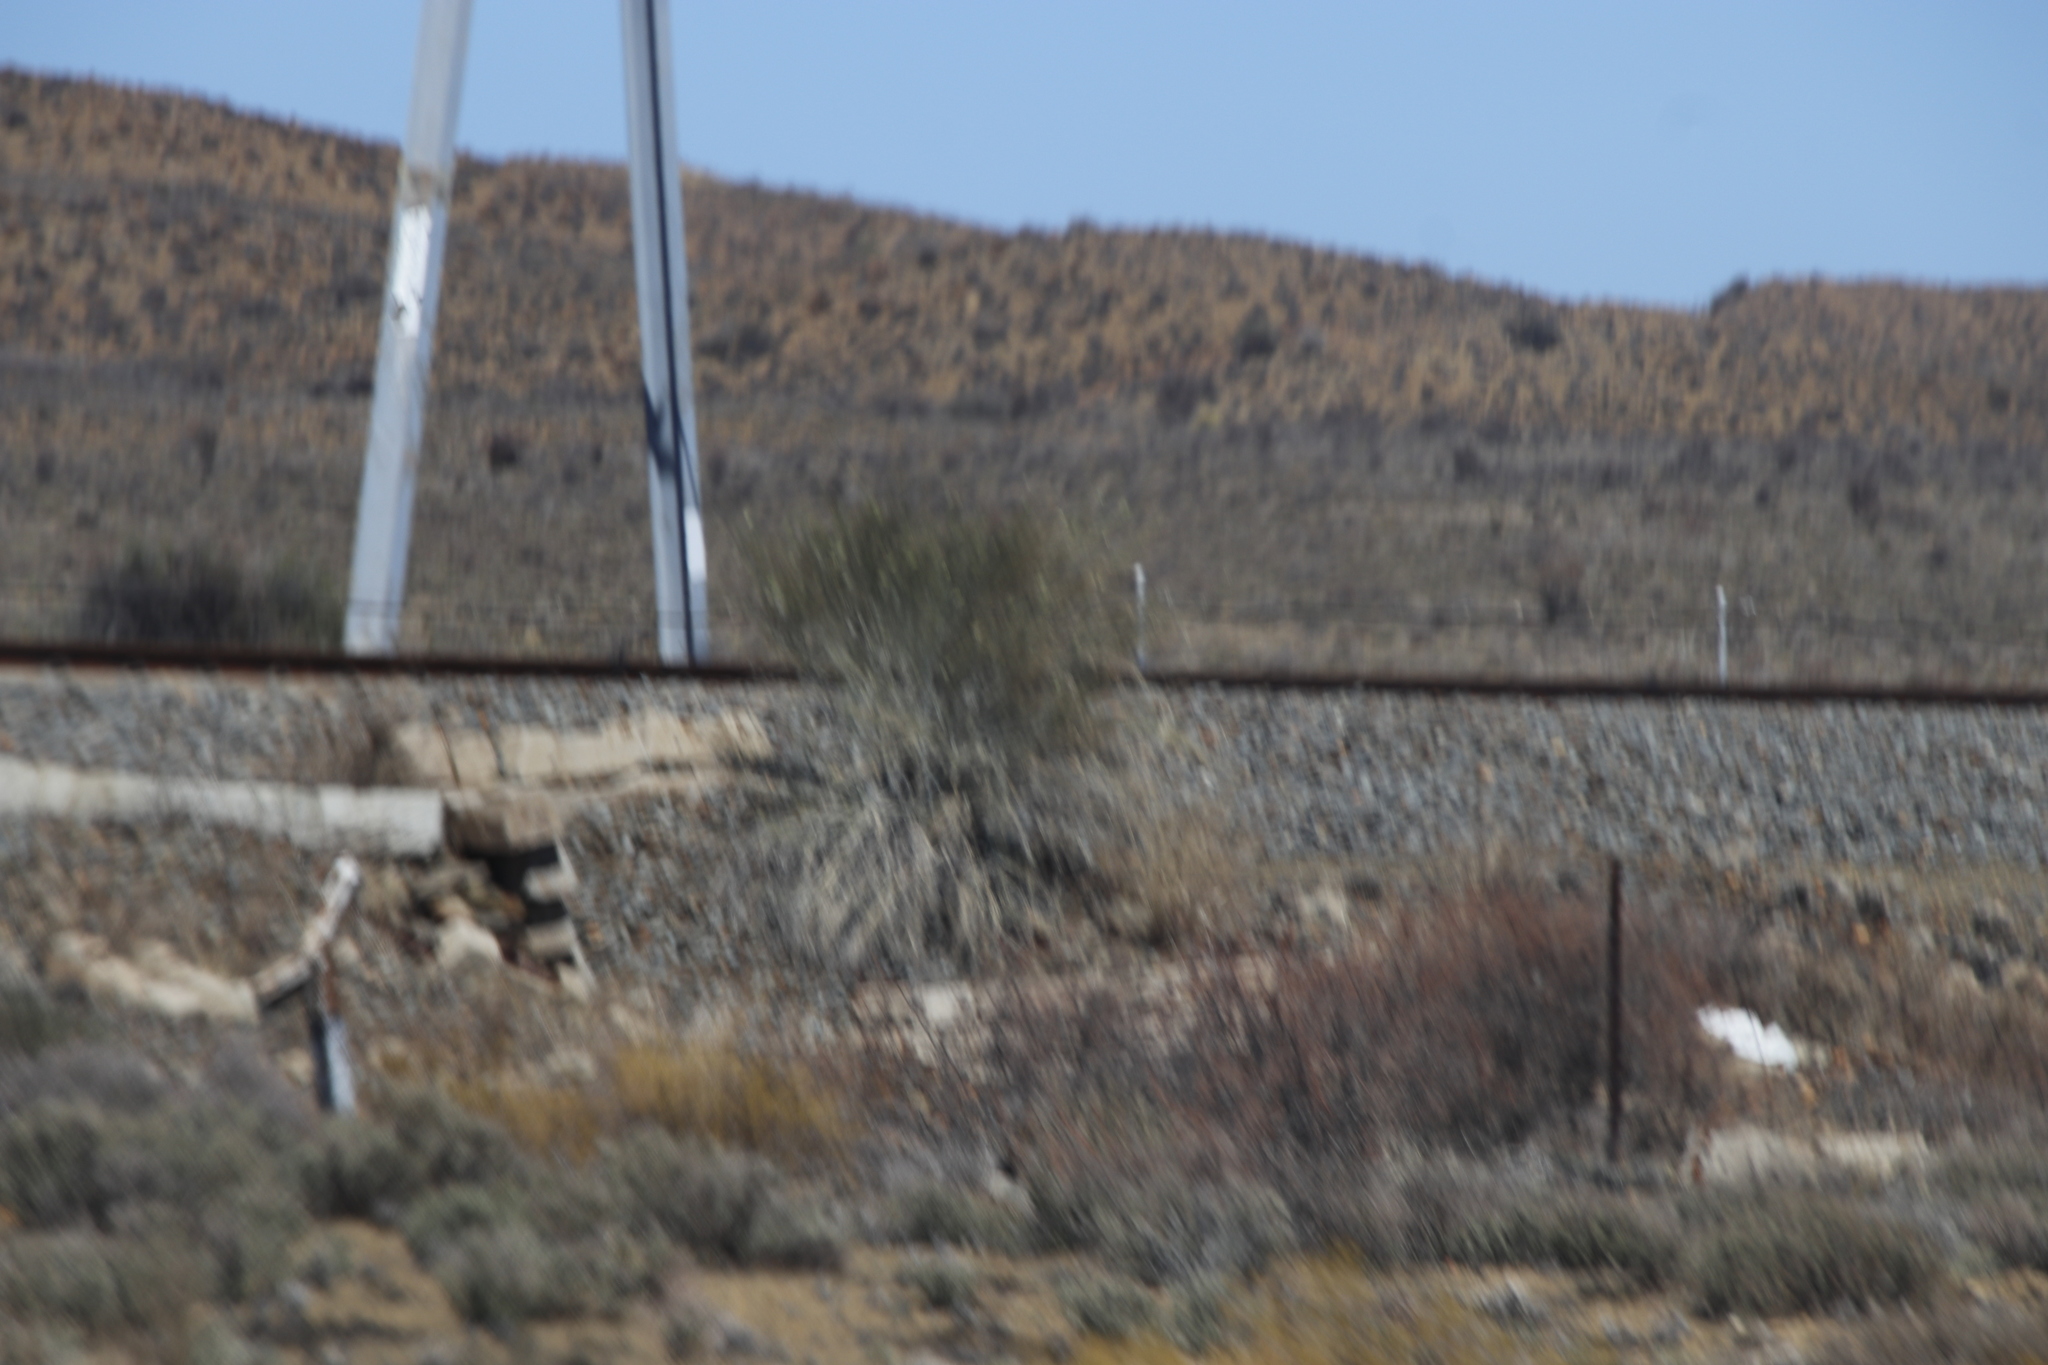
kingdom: Plantae
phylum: Tracheophyta
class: Magnoliopsida
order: Gentianales
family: Apocynaceae
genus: Gomphocarpus
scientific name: Gomphocarpus filiformis
